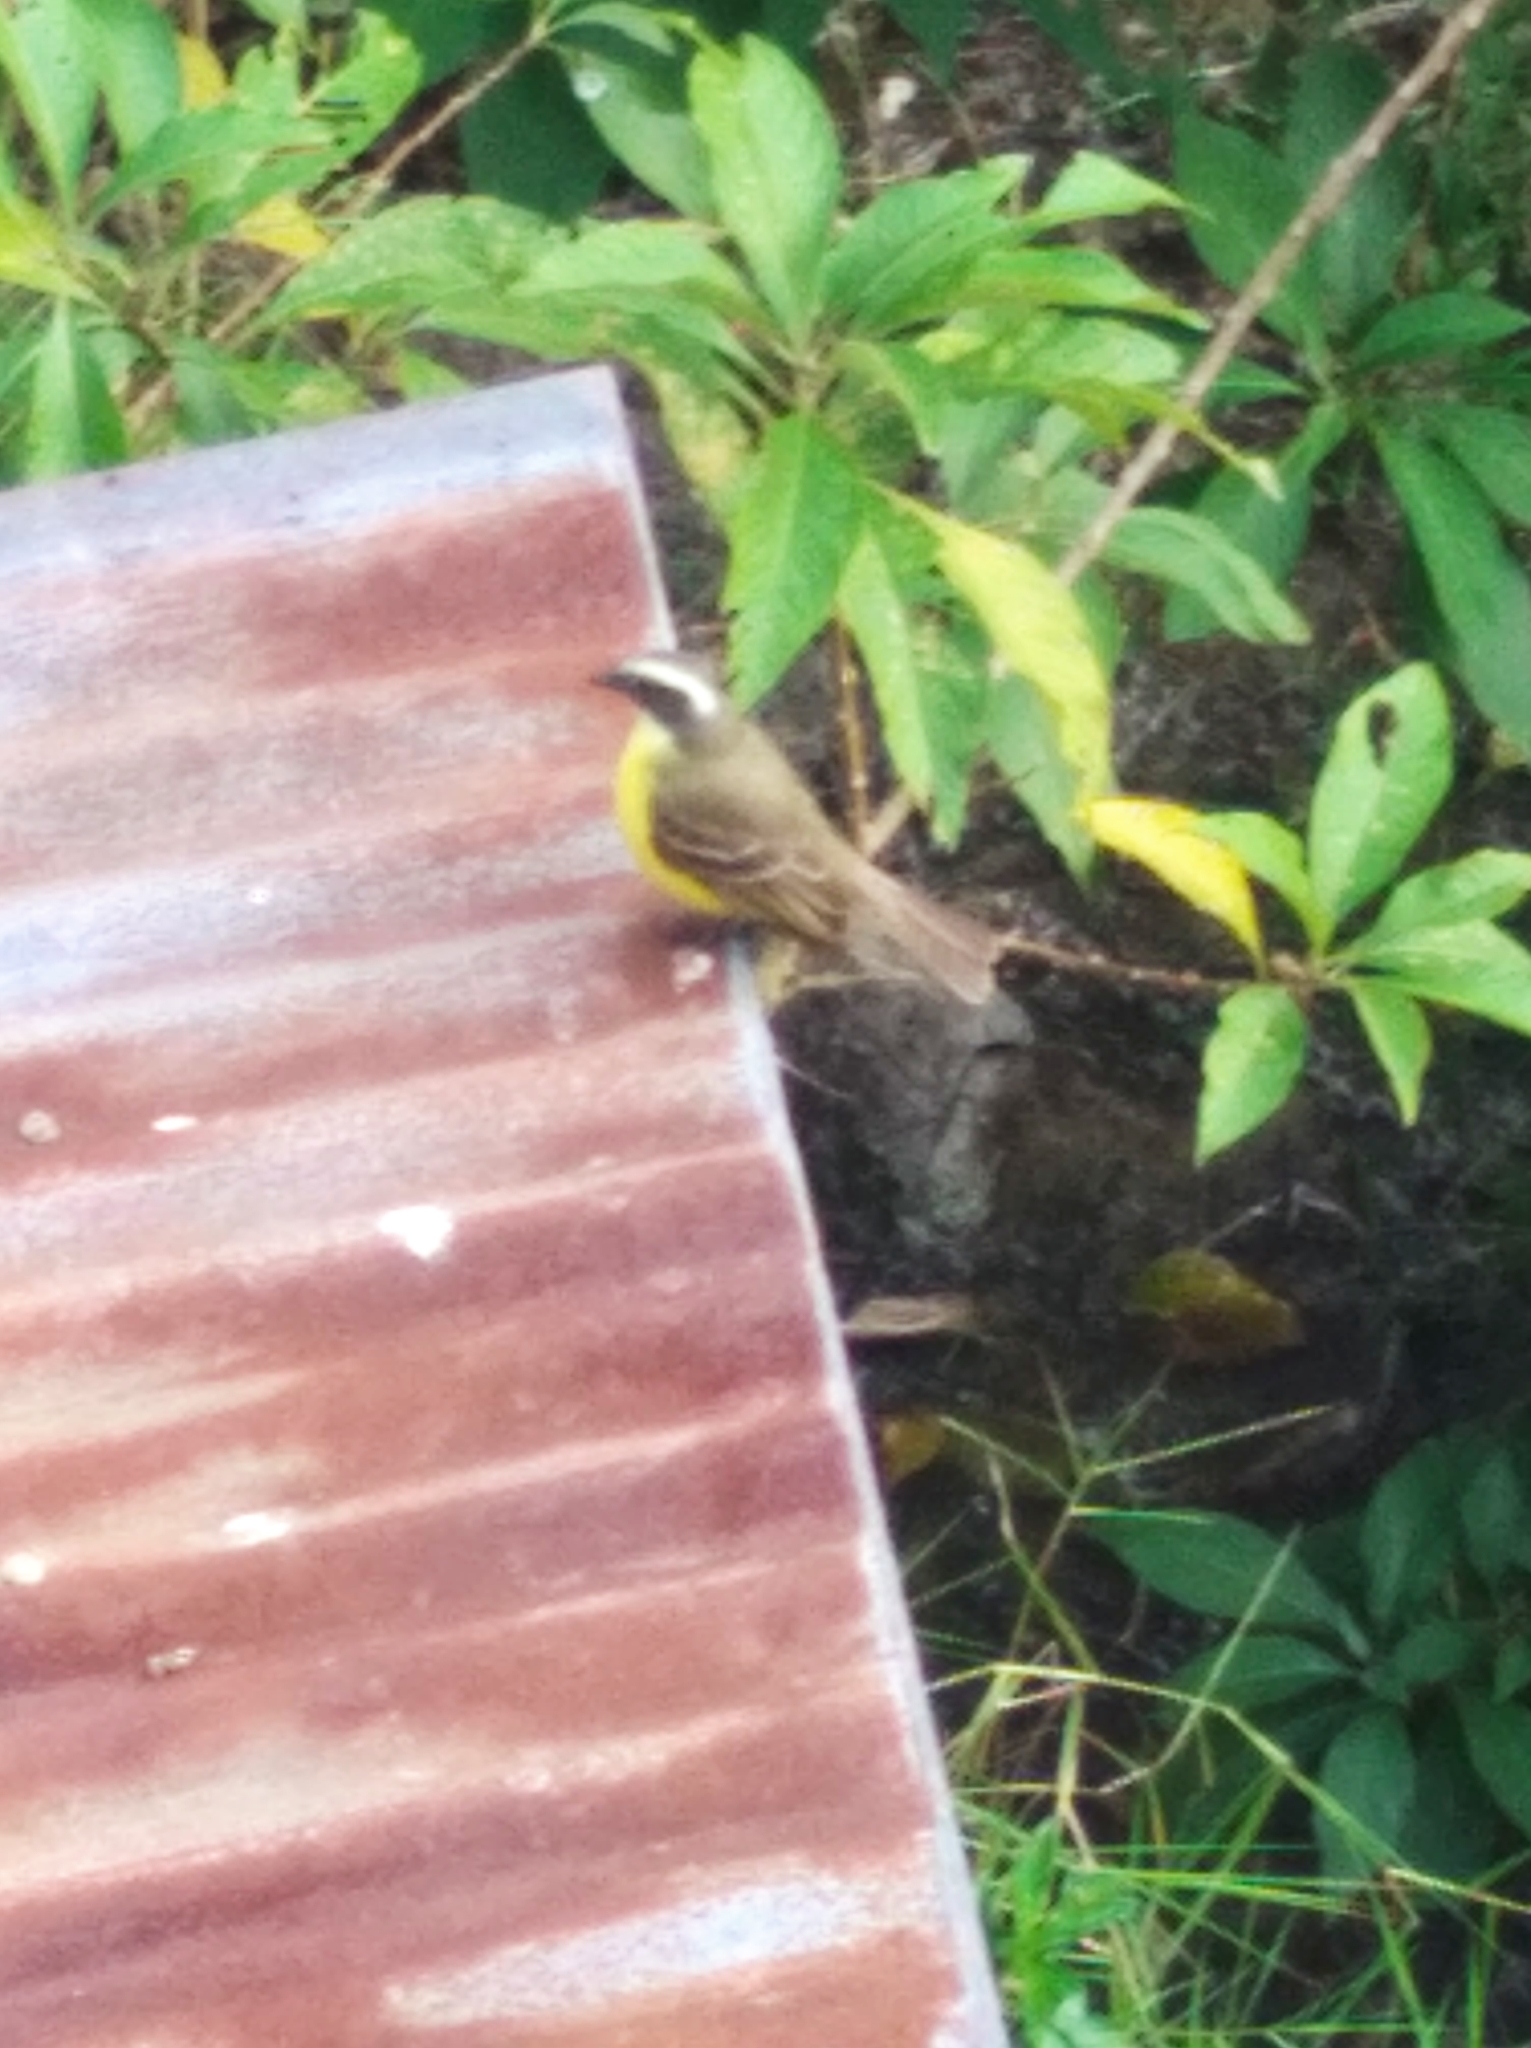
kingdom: Animalia
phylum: Chordata
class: Aves
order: Passeriformes
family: Tyrannidae
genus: Myiozetetes
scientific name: Myiozetetes similis
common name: Social flycatcher
